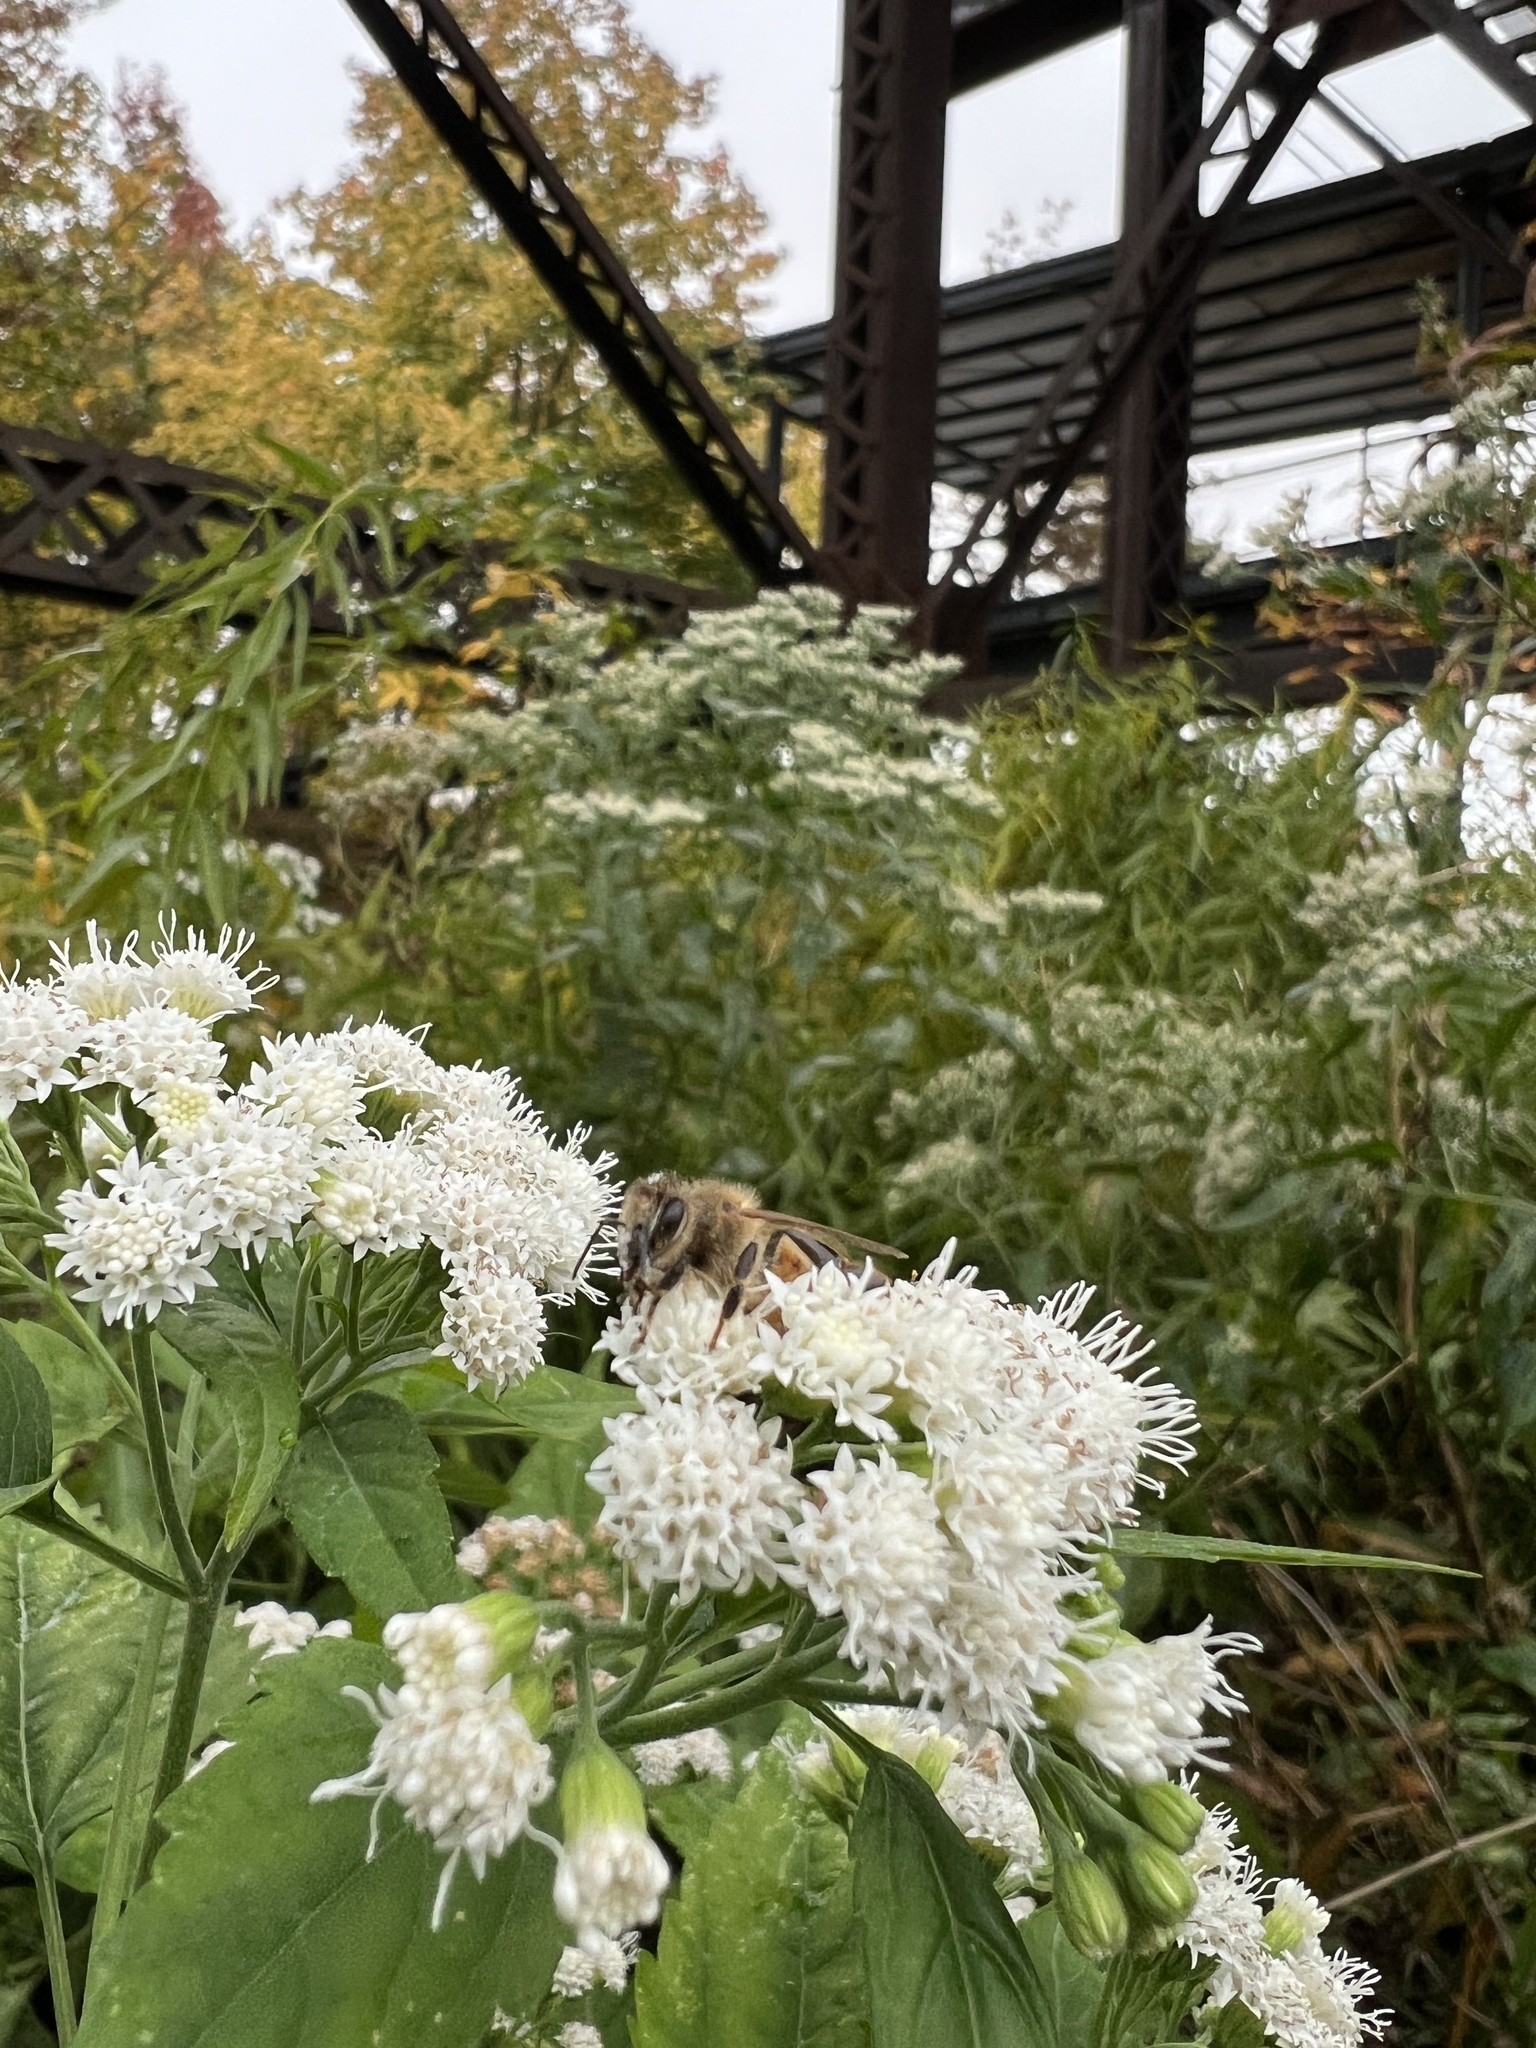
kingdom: Plantae
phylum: Tracheophyta
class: Magnoliopsida
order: Asterales
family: Asteraceae
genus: Ageratina
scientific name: Ageratina altissima
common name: White snakeroot
